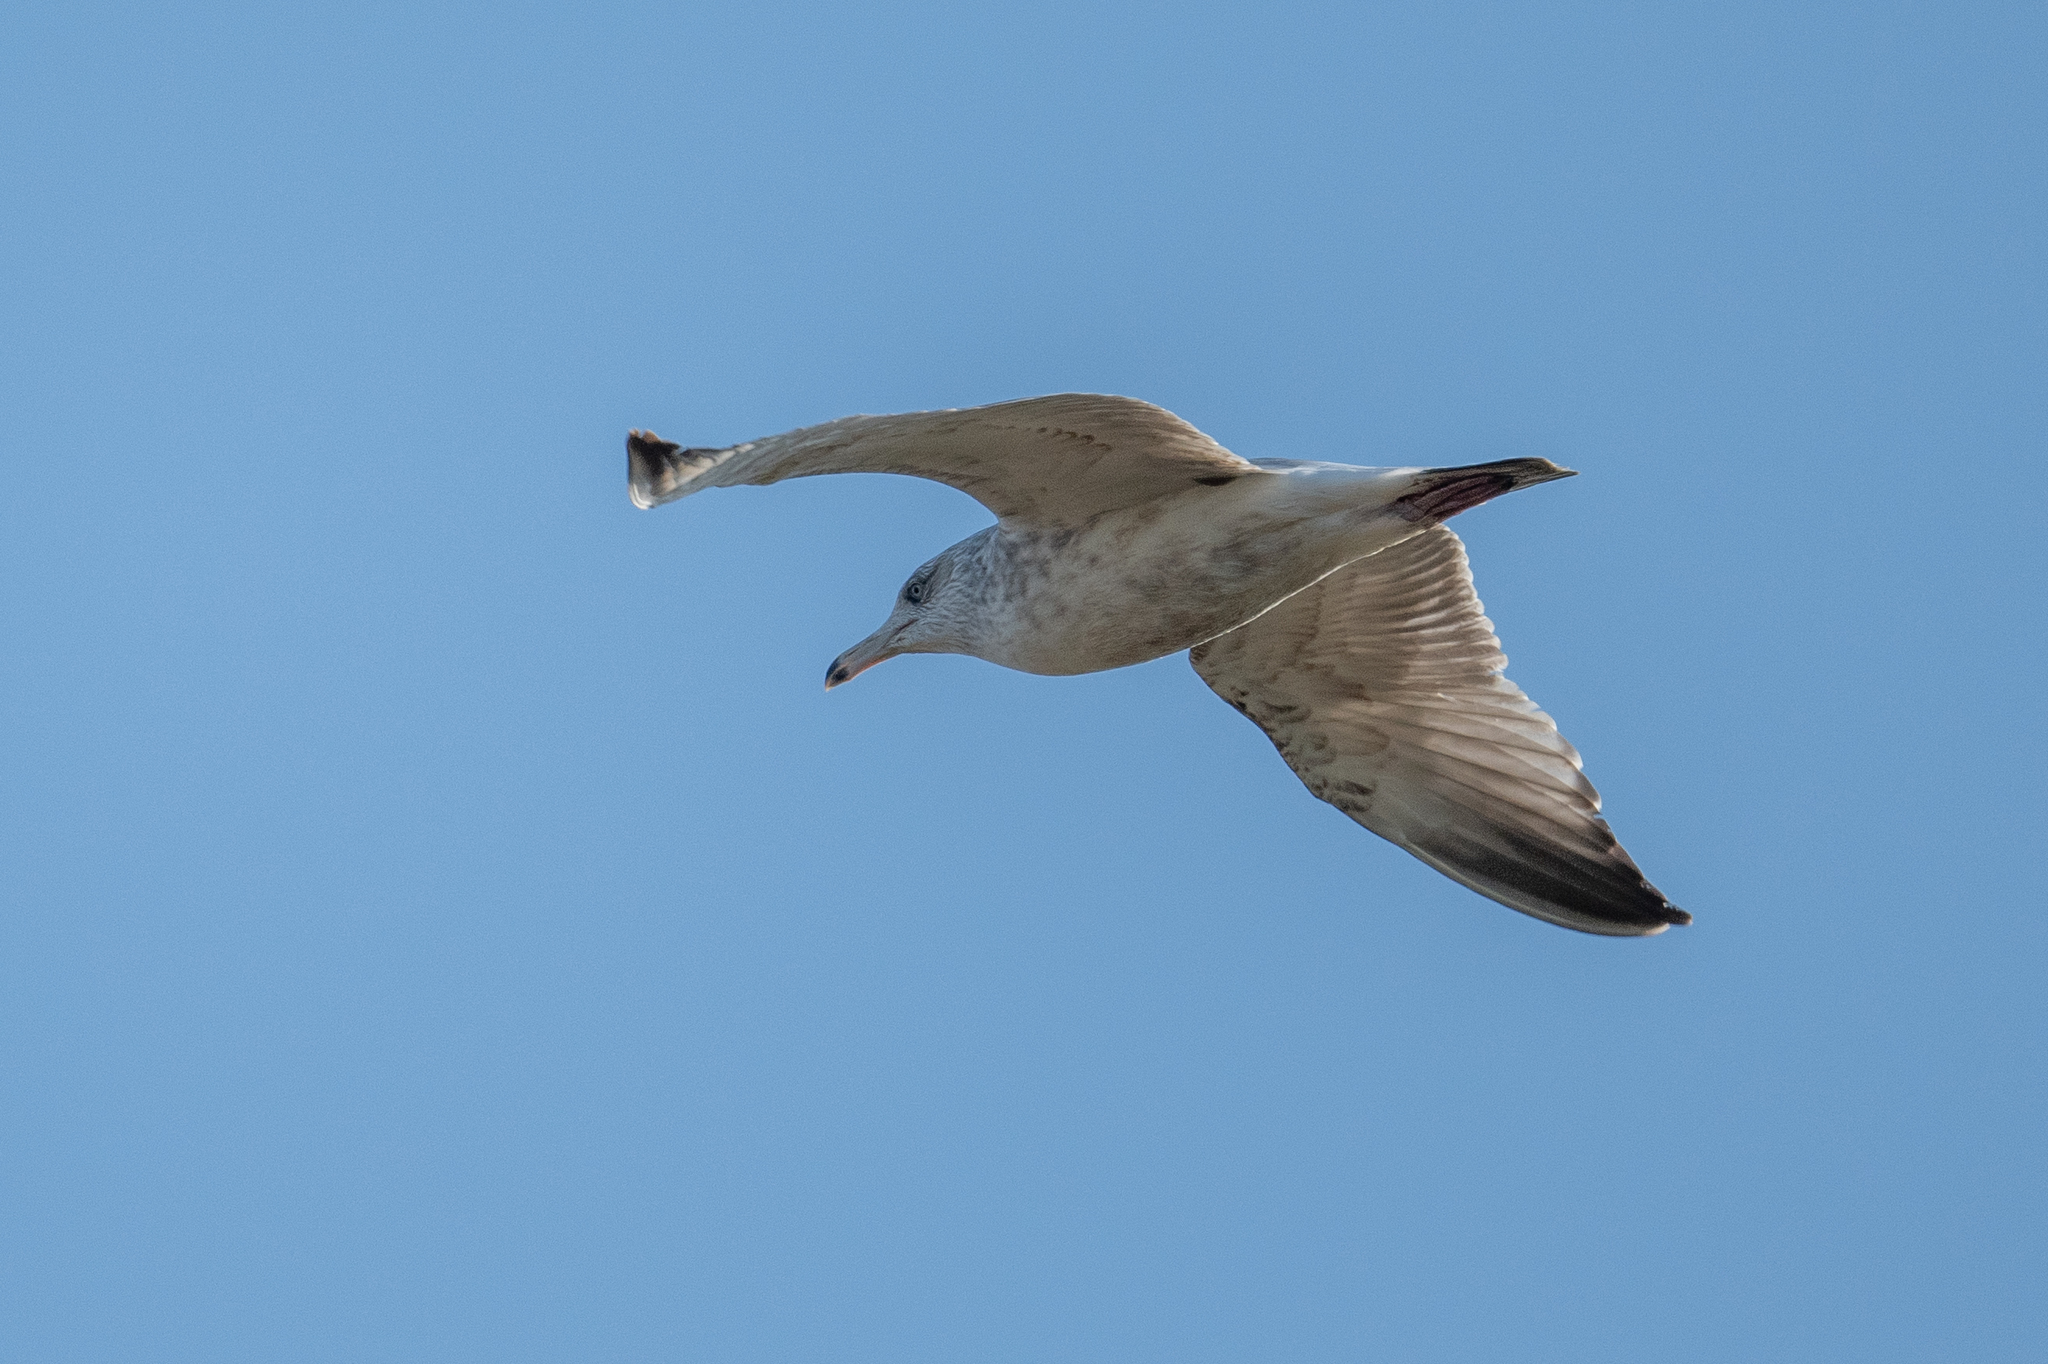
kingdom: Animalia
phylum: Chordata
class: Aves
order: Charadriiformes
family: Laridae
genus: Larus
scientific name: Larus californicus
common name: California gull
